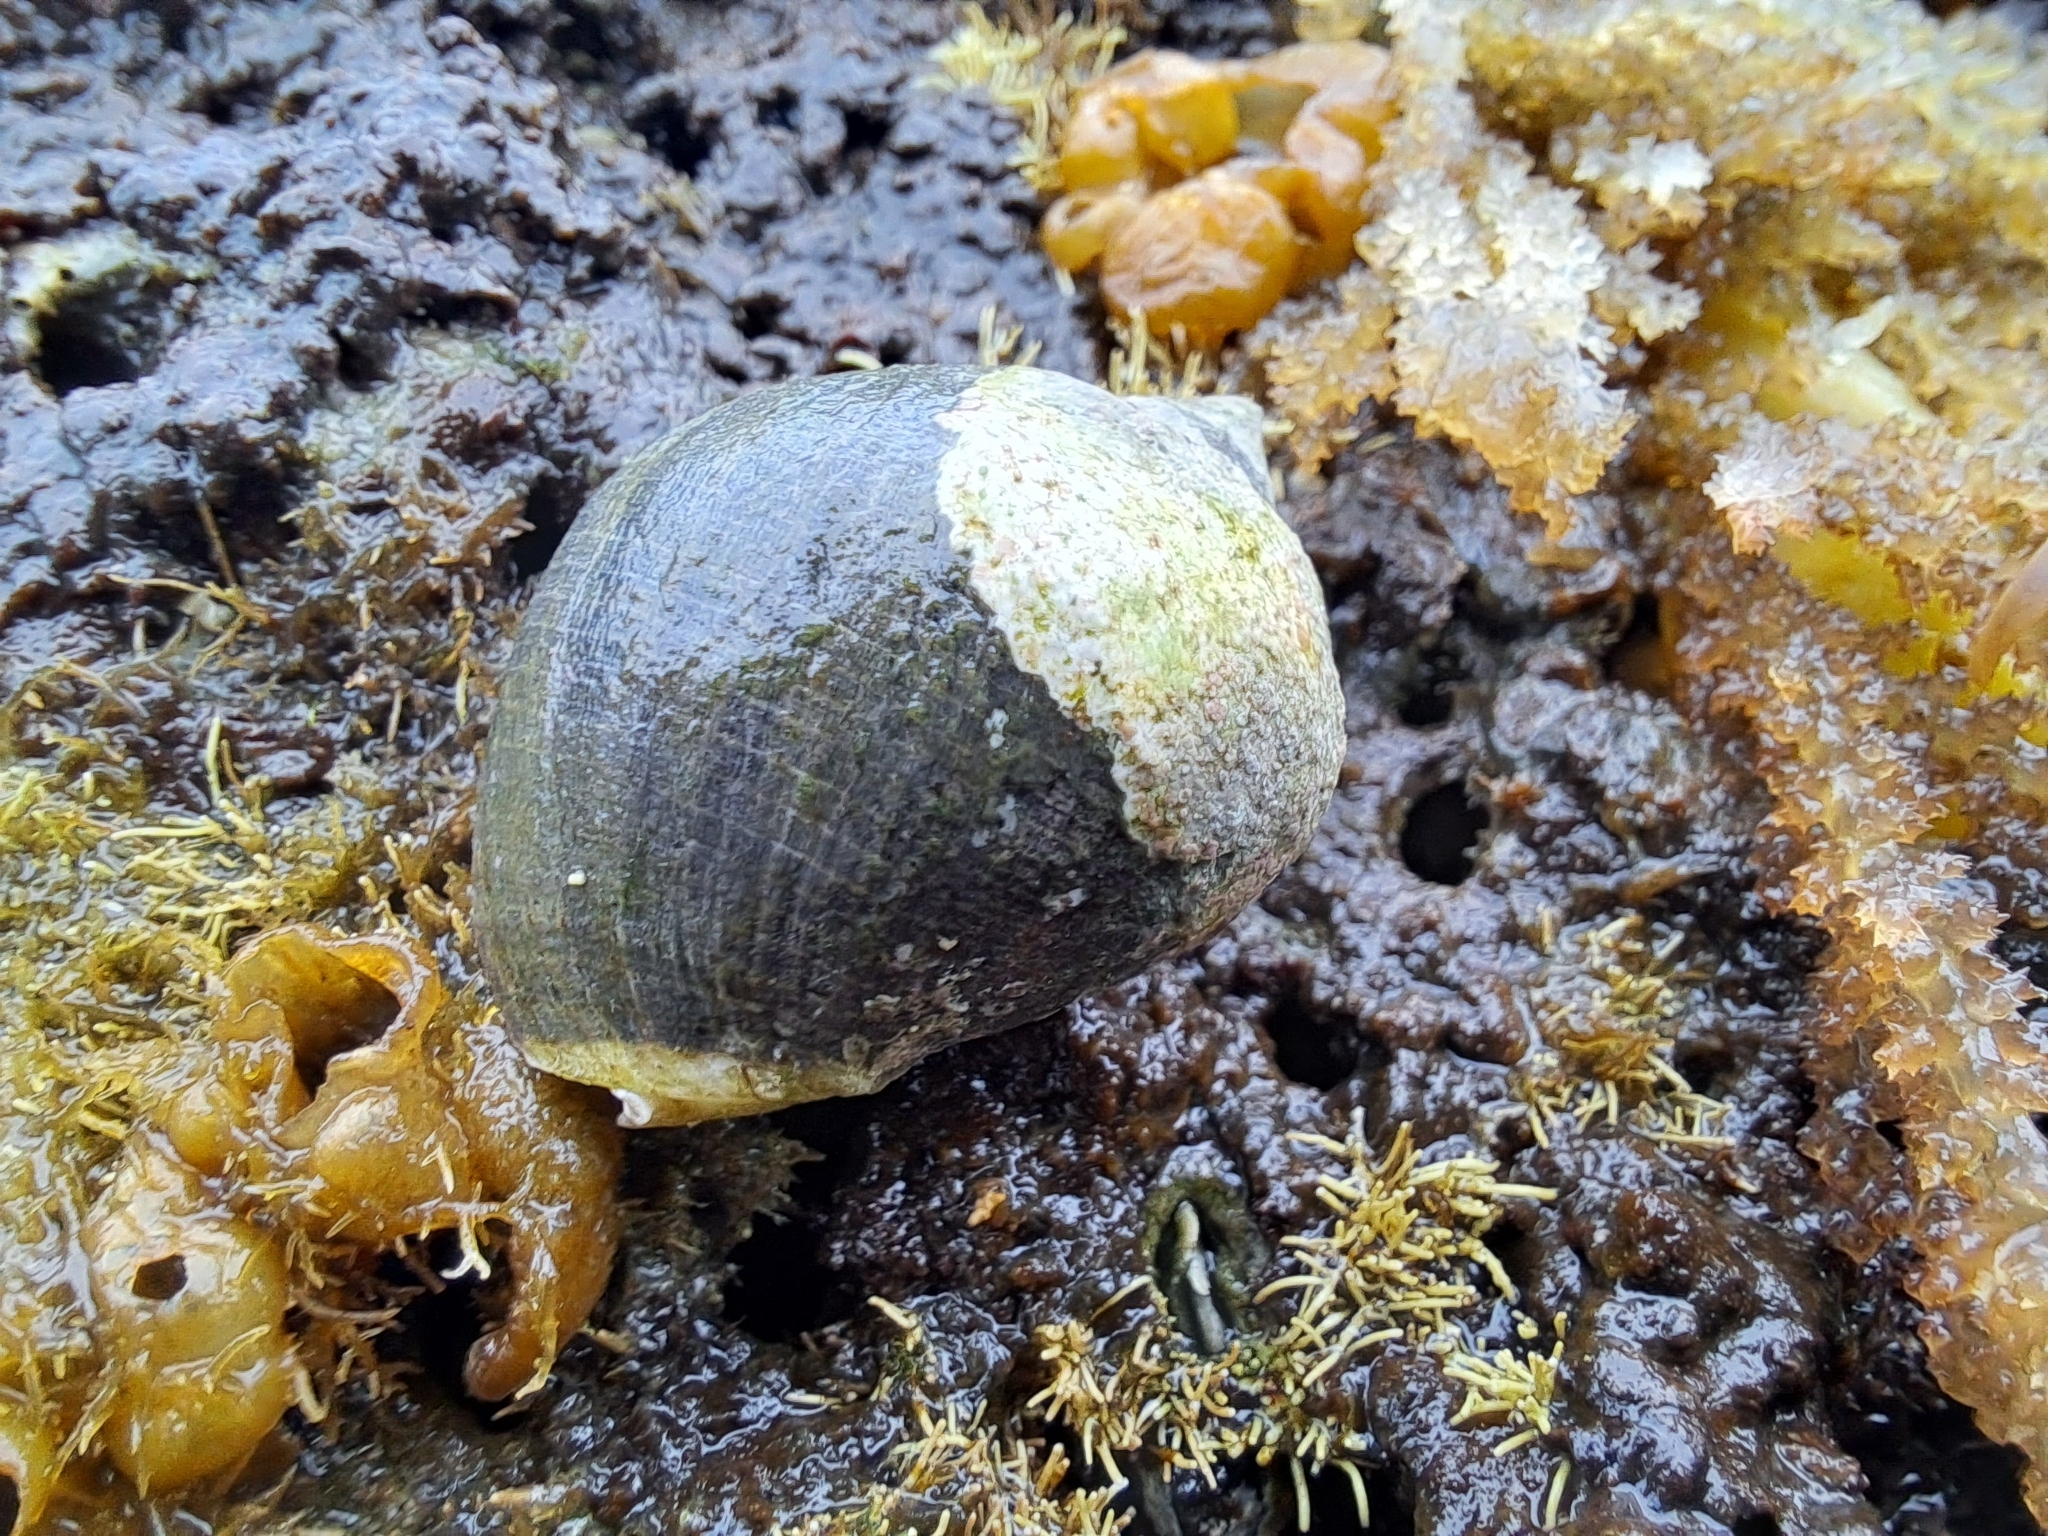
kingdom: Animalia
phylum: Mollusca
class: Gastropoda
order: Neogastropoda
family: Muricidae
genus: Vasula
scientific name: Vasula melones
